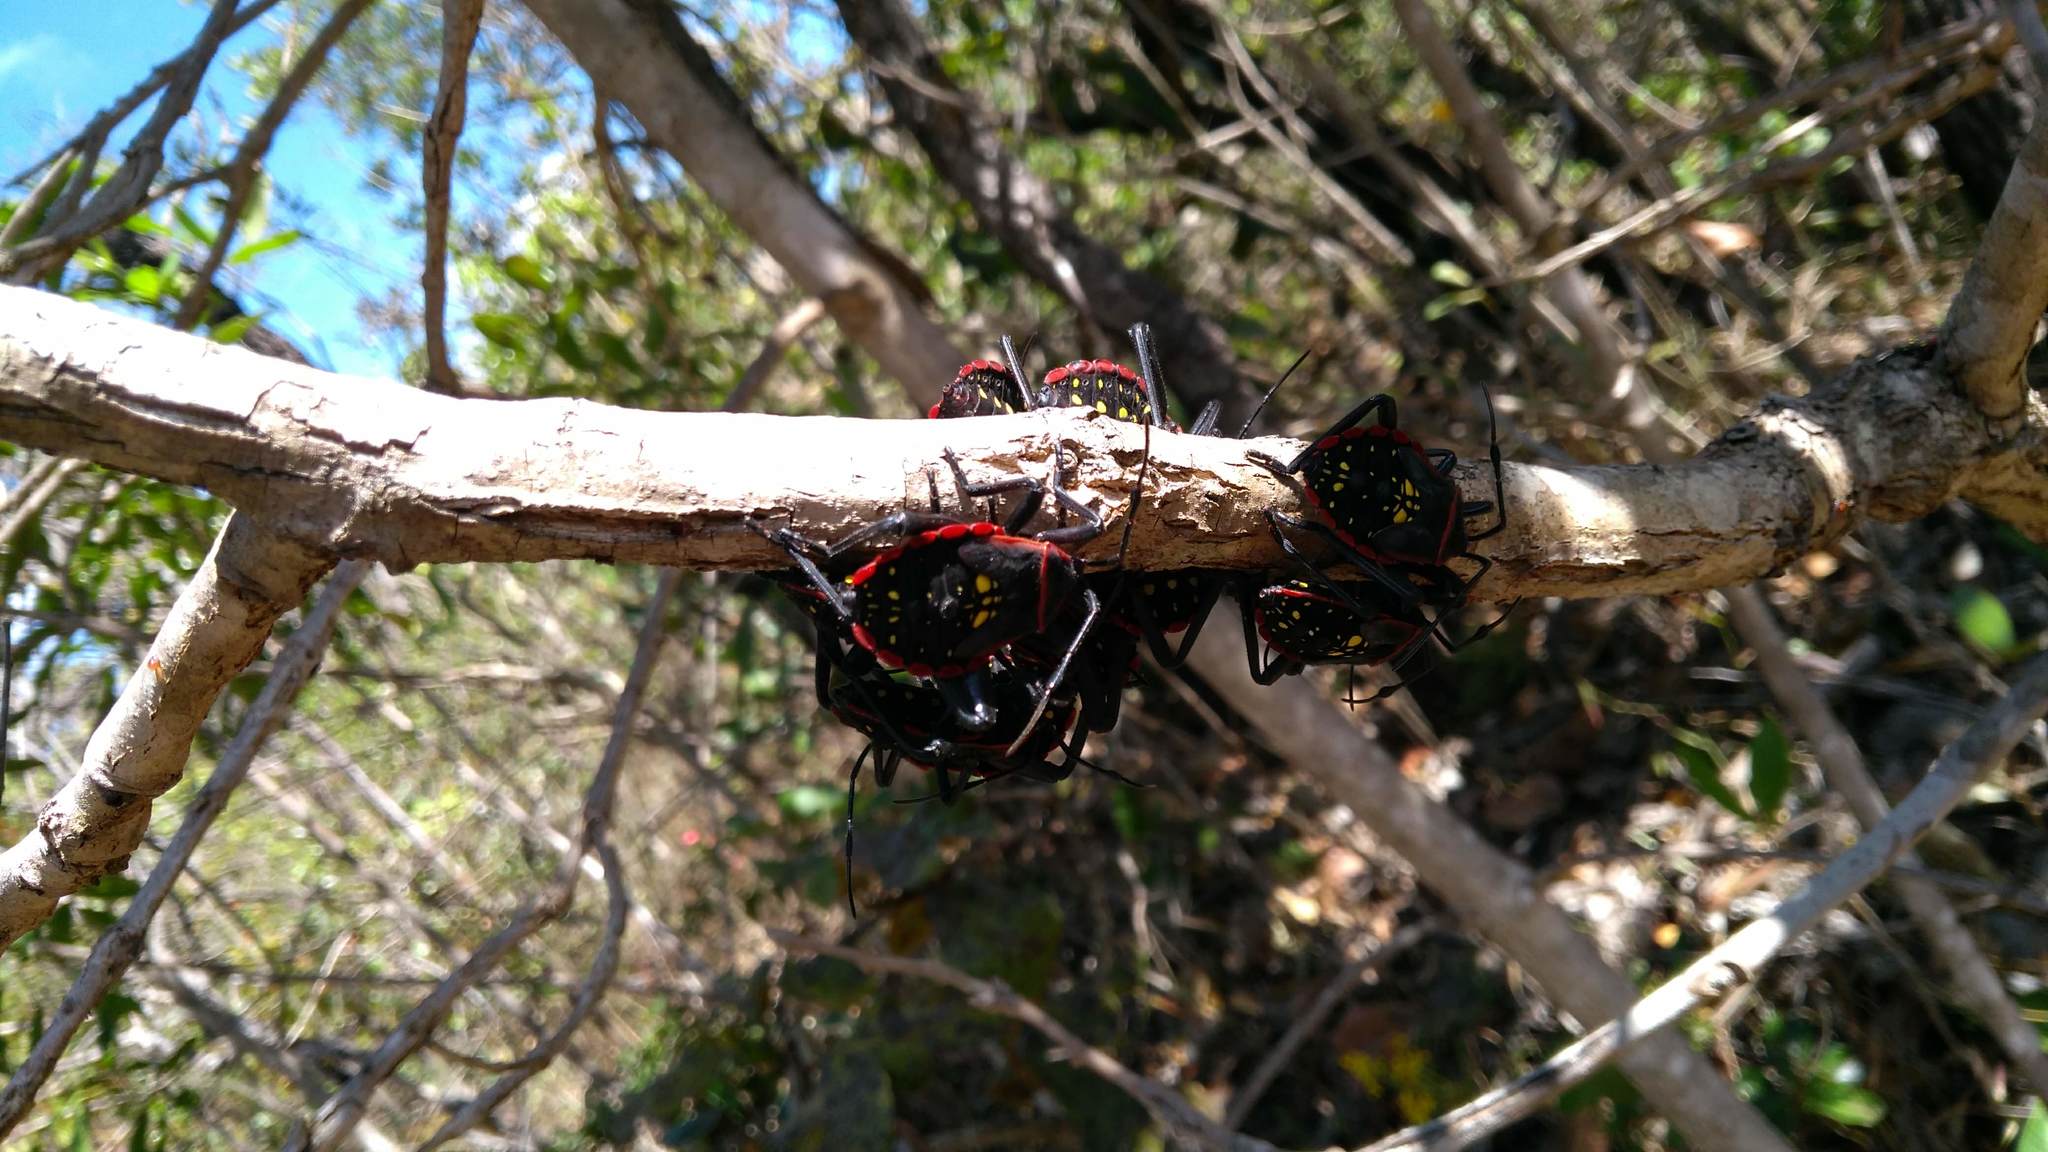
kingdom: Animalia
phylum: Arthropoda
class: Insecta
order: Hemiptera
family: Coreidae
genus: Pachylis
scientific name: Pachylis pharaonis
